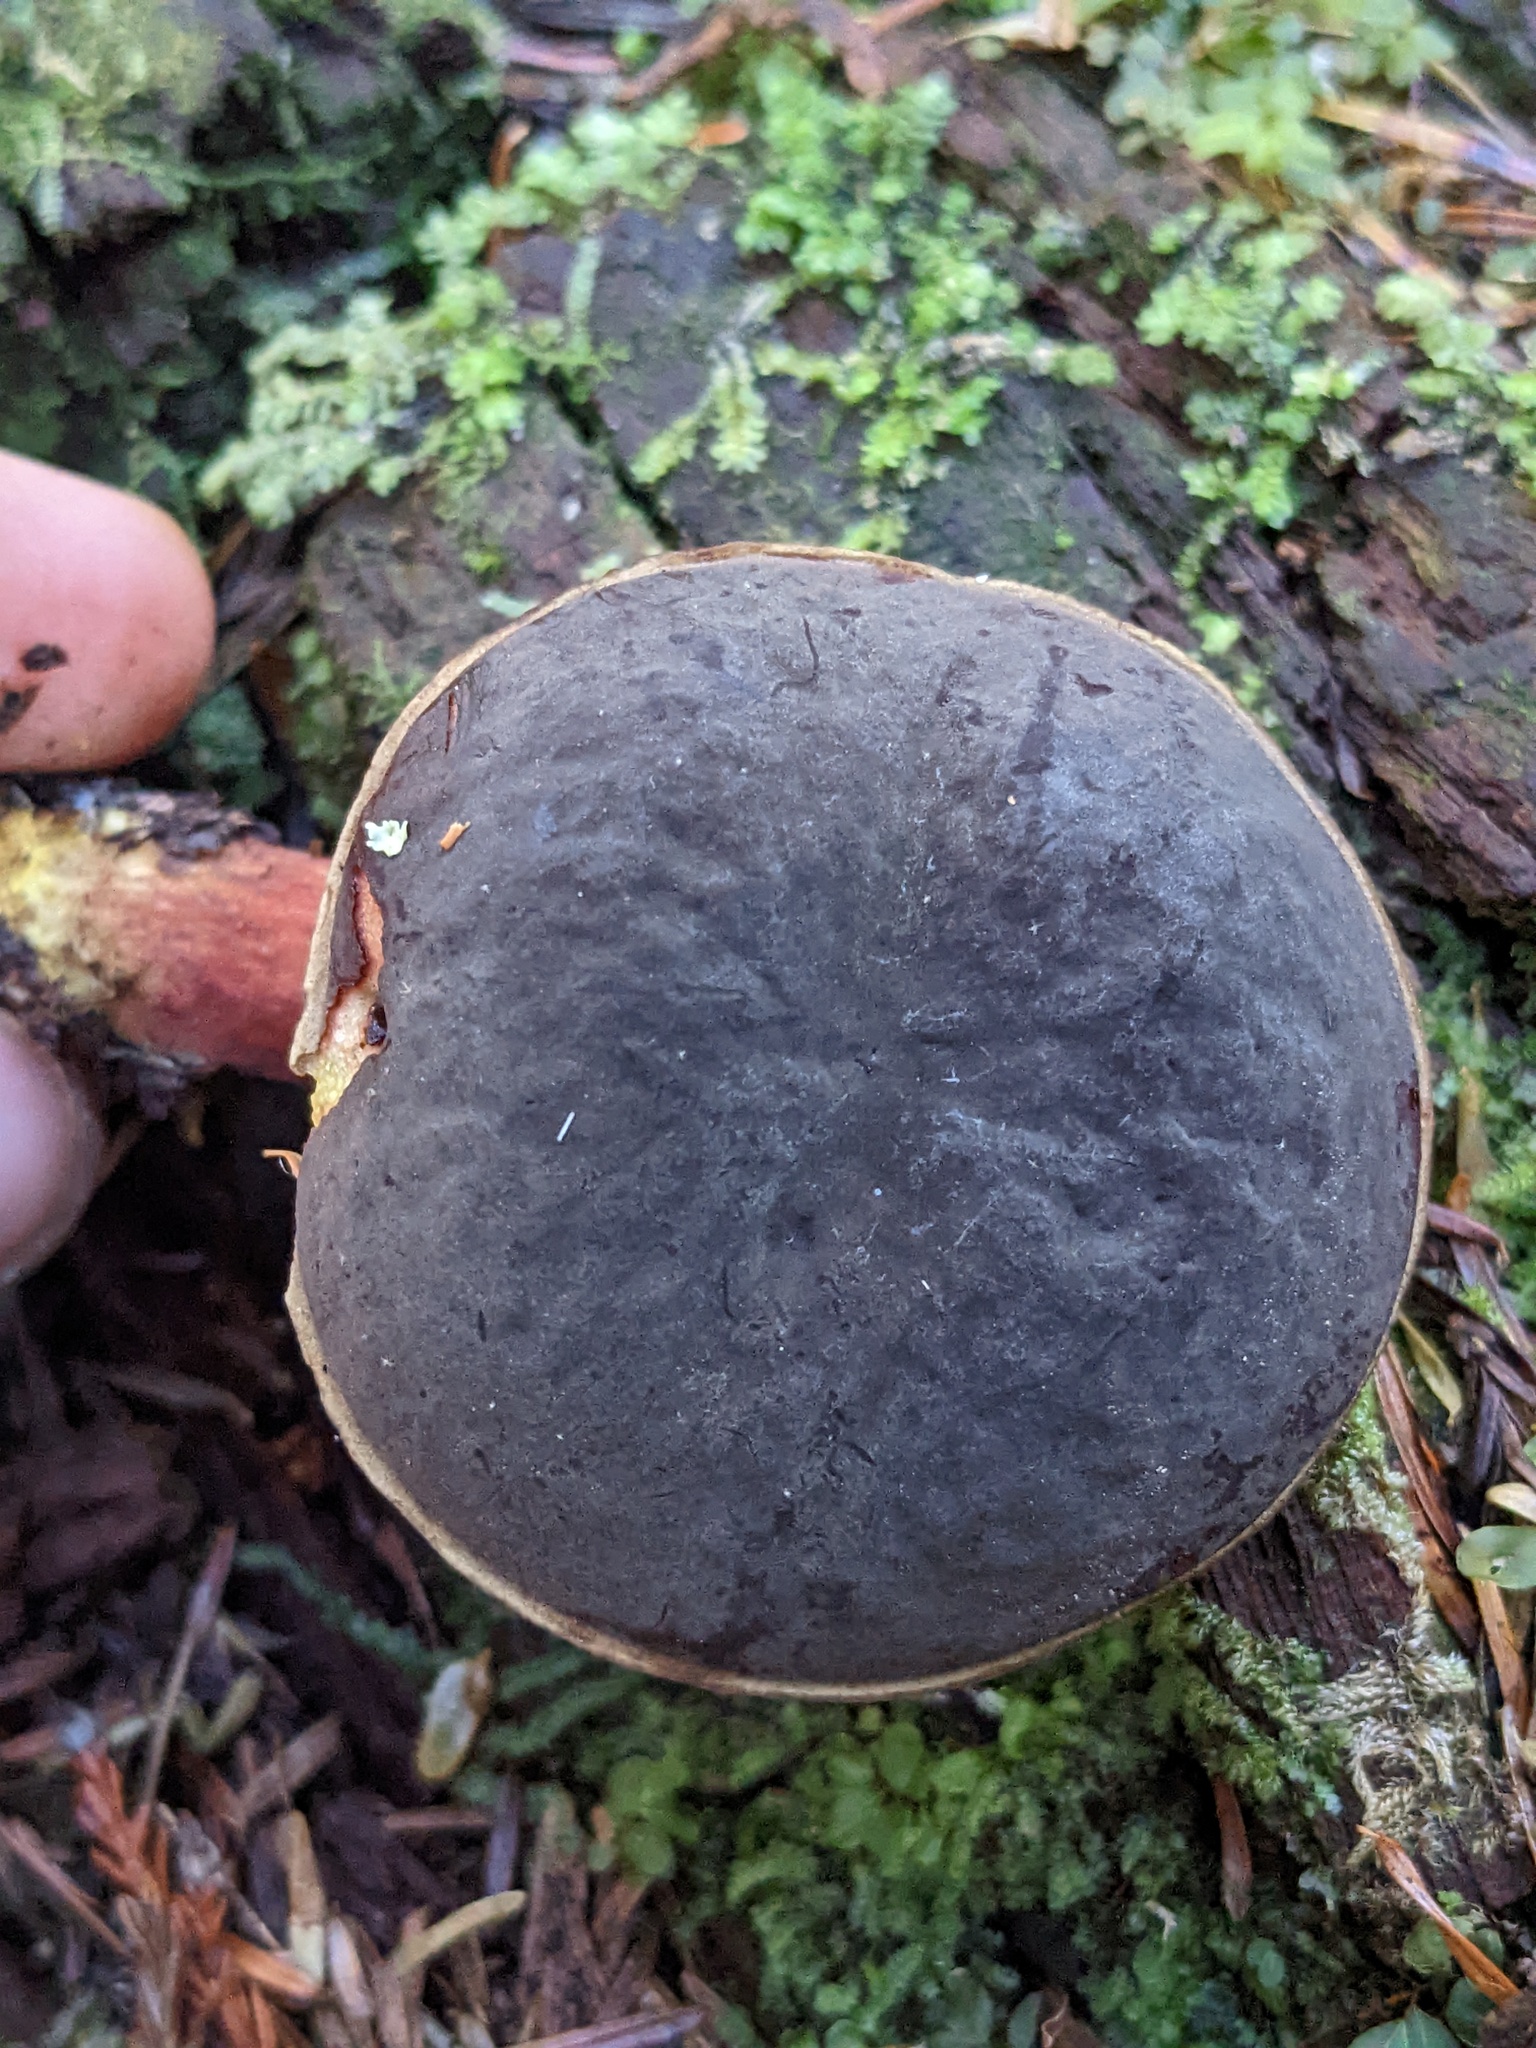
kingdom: Fungi
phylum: Basidiomycota
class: Agaricomycetes
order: Boletales
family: Boletaceae
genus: Xerocomellus
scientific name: Xerocomellus atropurpureus
